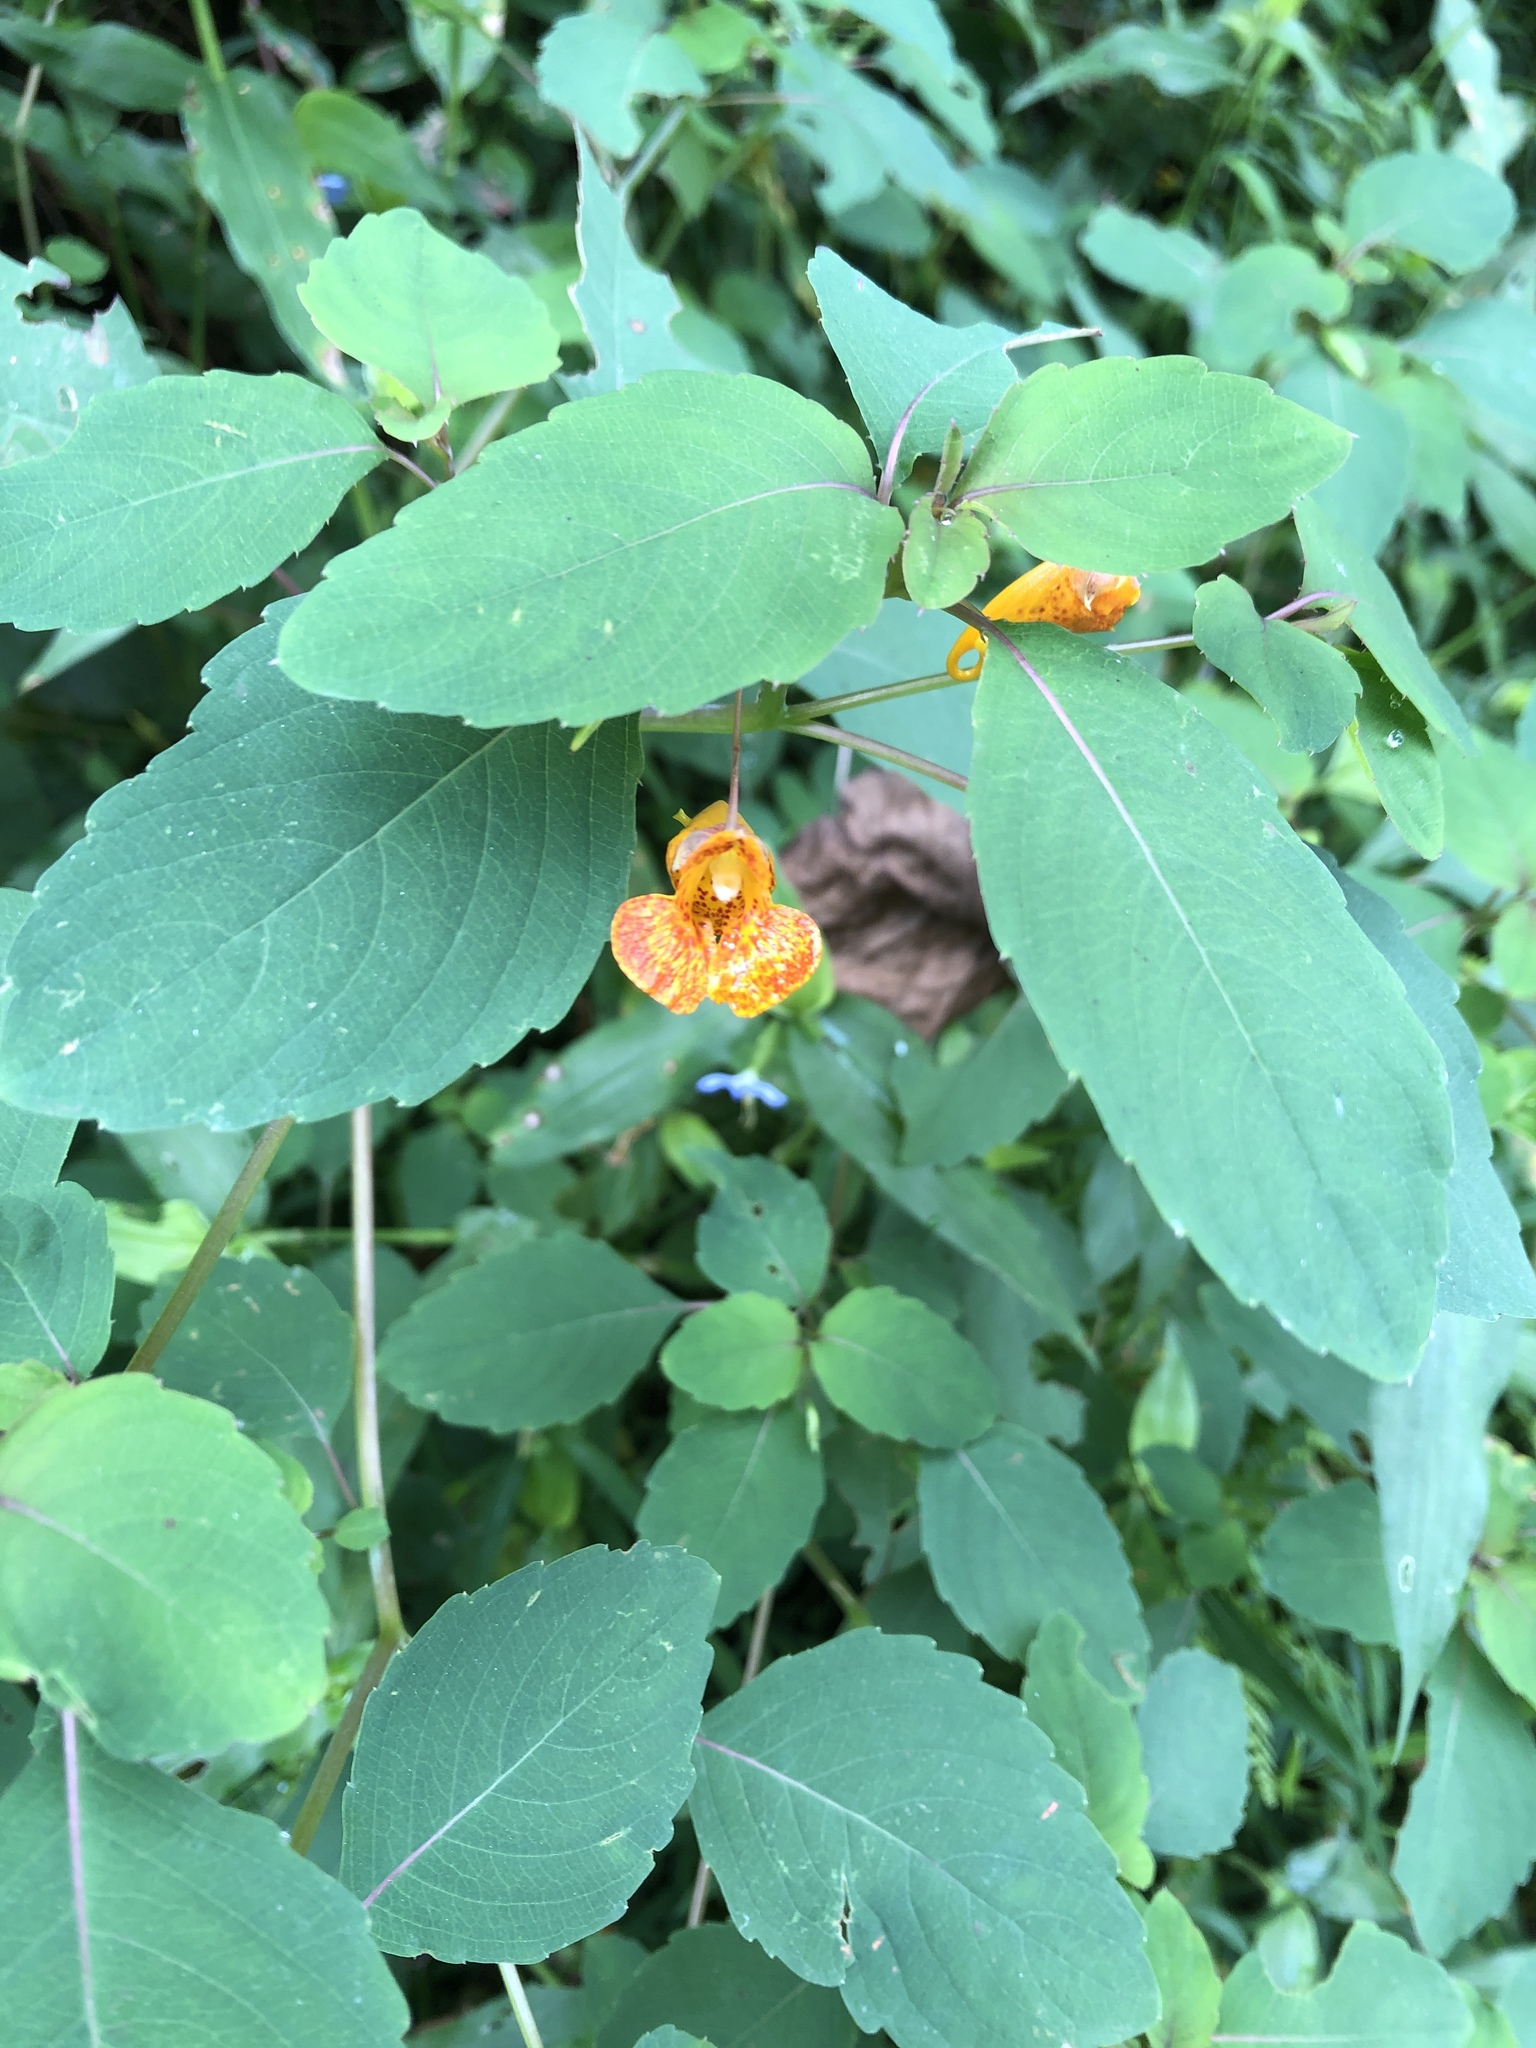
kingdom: Plantae
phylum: Tracheophyta
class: Magnoliopsida
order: Ericales
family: Balsaminaceae
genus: Impatiens
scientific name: Impatiens capensis
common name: Orange balsam
